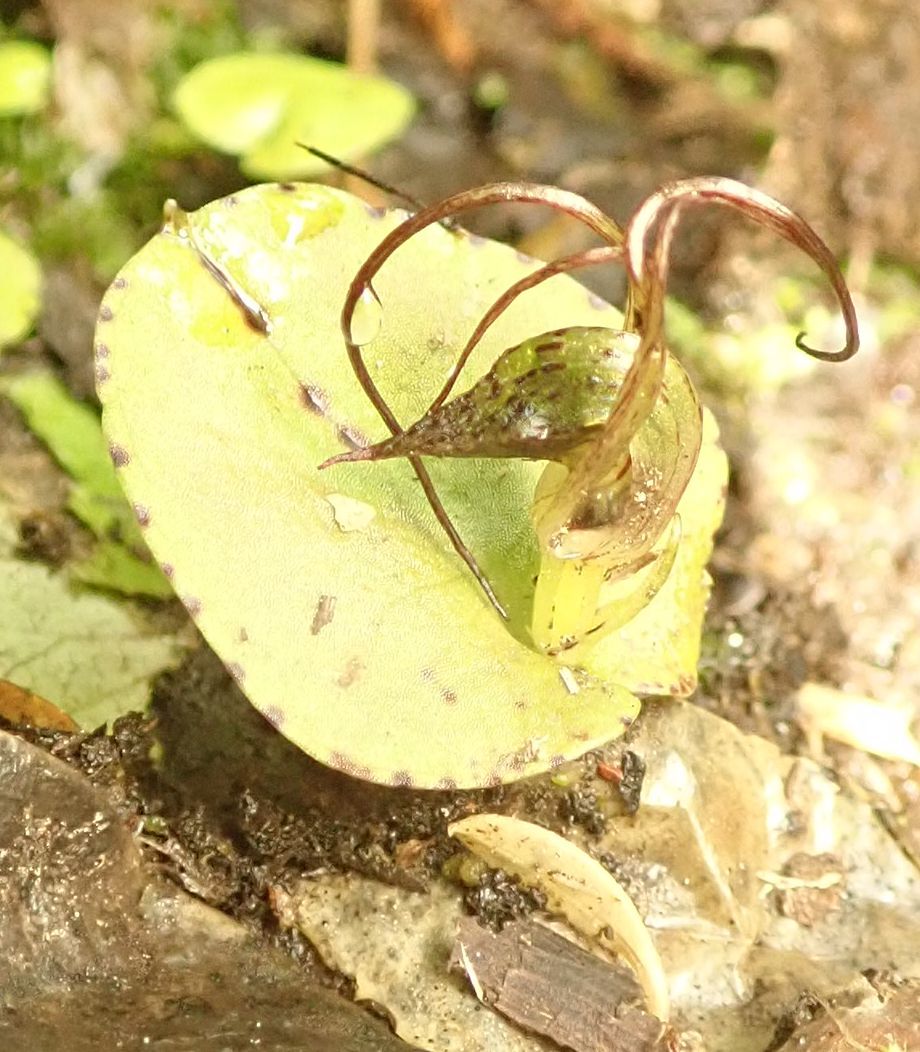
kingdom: Plantae
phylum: Tracheophyta
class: Liliopsida
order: Asparagales
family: Orchidaceae
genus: Corybas
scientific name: Corybas iridescens
